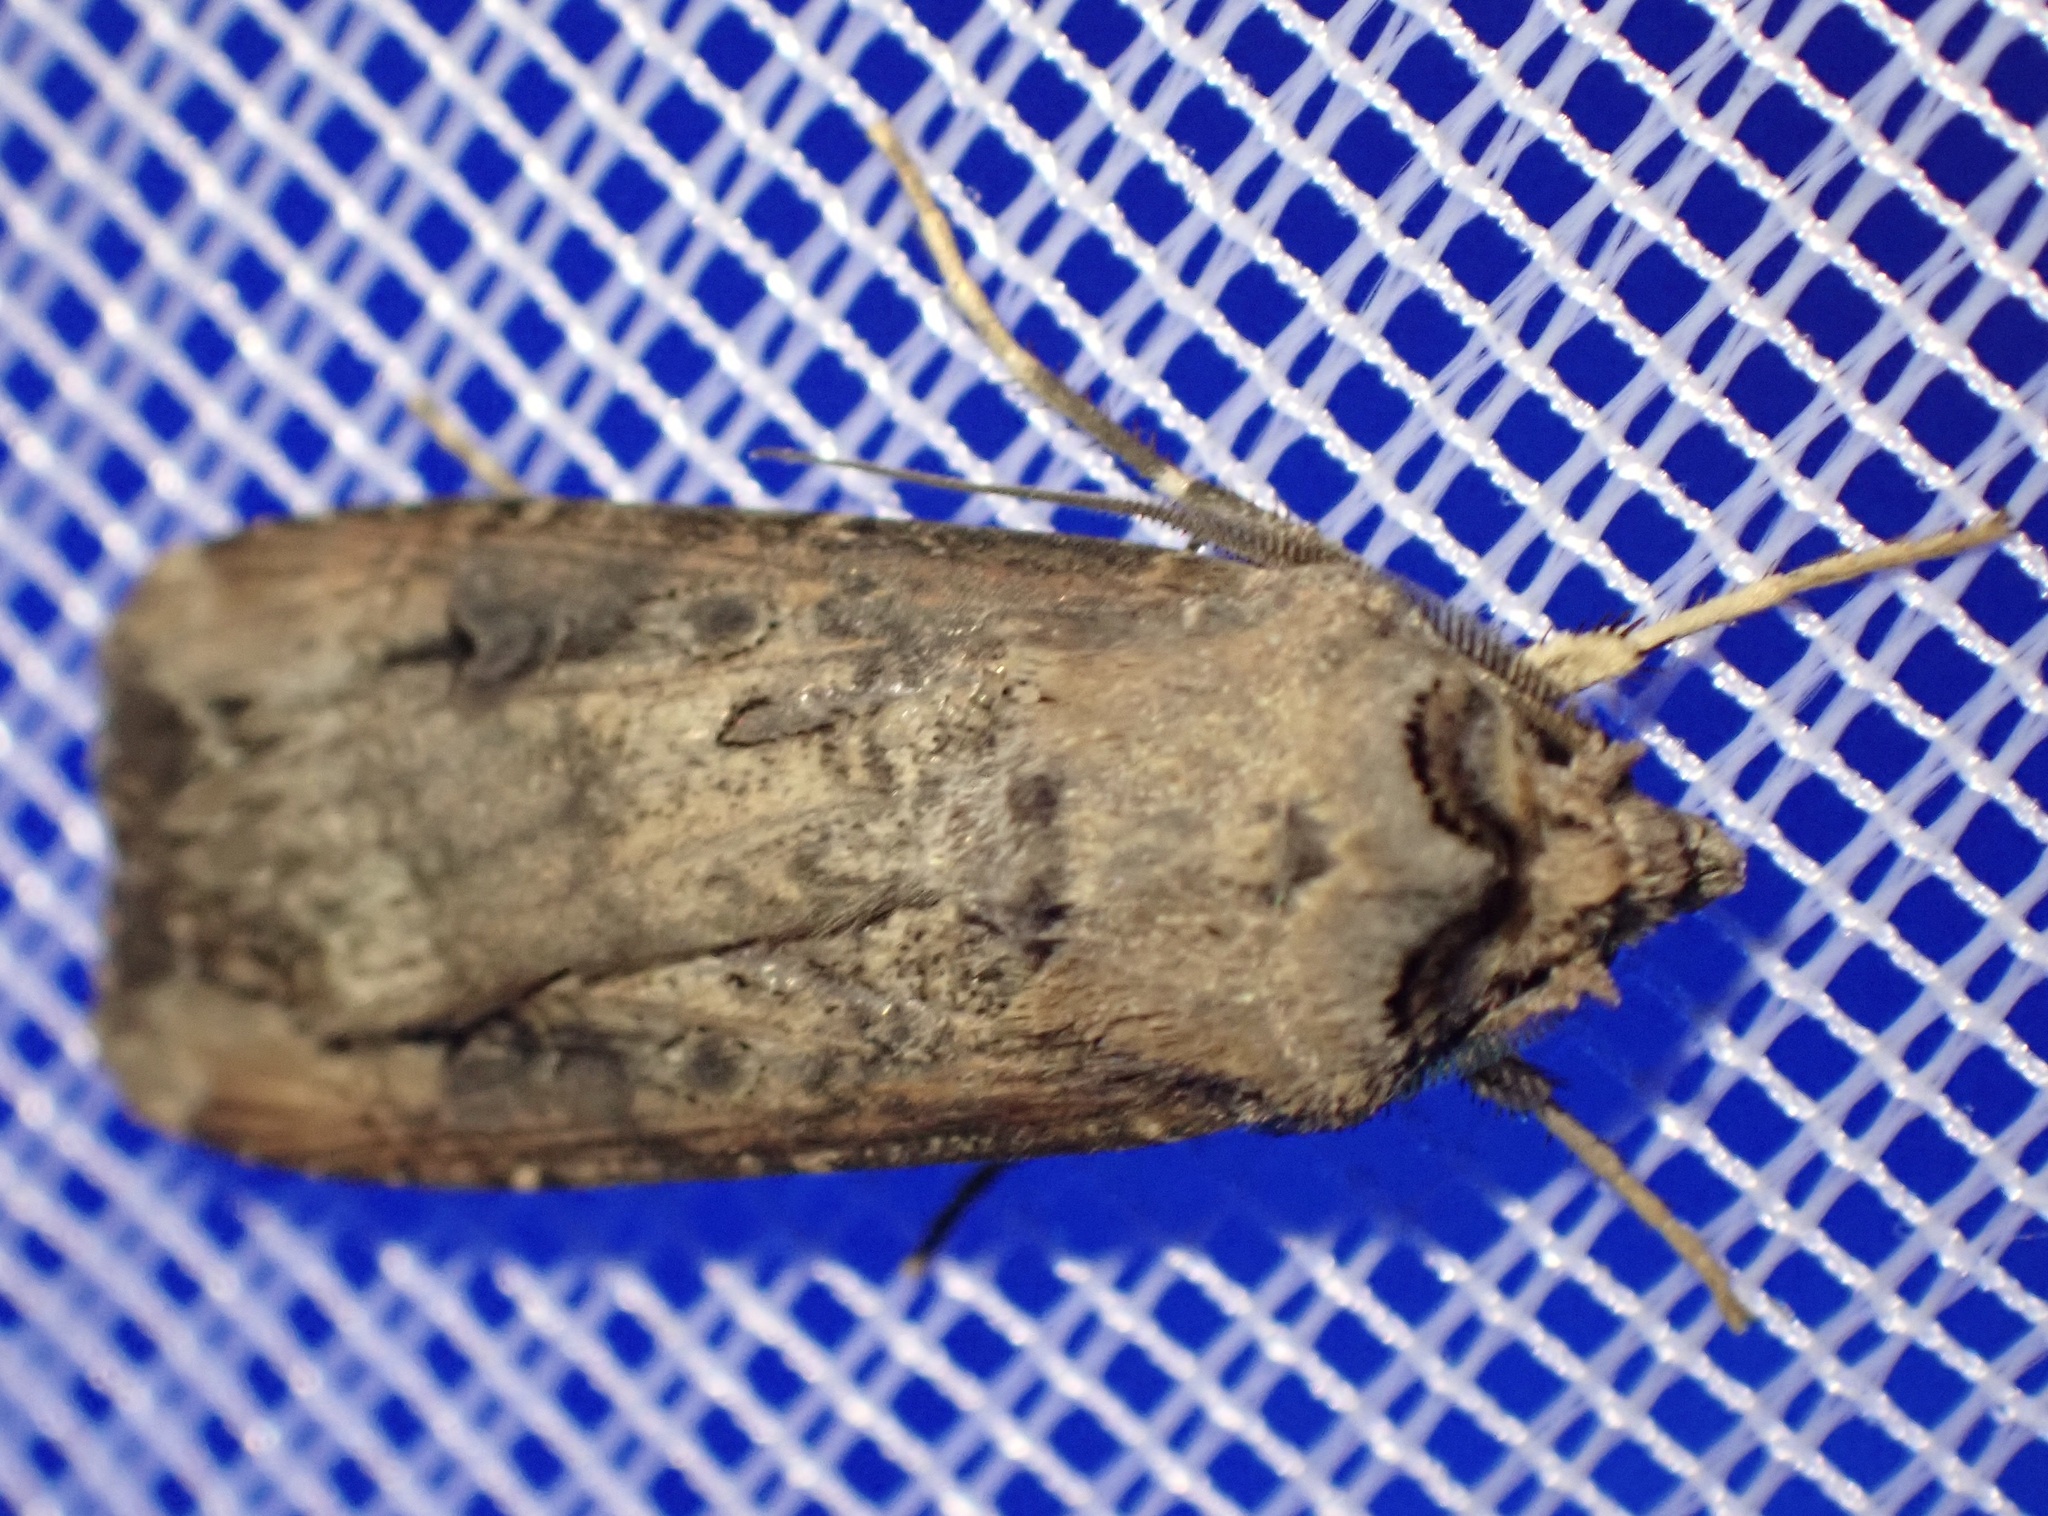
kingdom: Animalia
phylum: Arthropoda
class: Insecta
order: Lepidoptera
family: Noctuidae
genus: Agrotis
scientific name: Agrotis ipsilon
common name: Dark sword-grass
